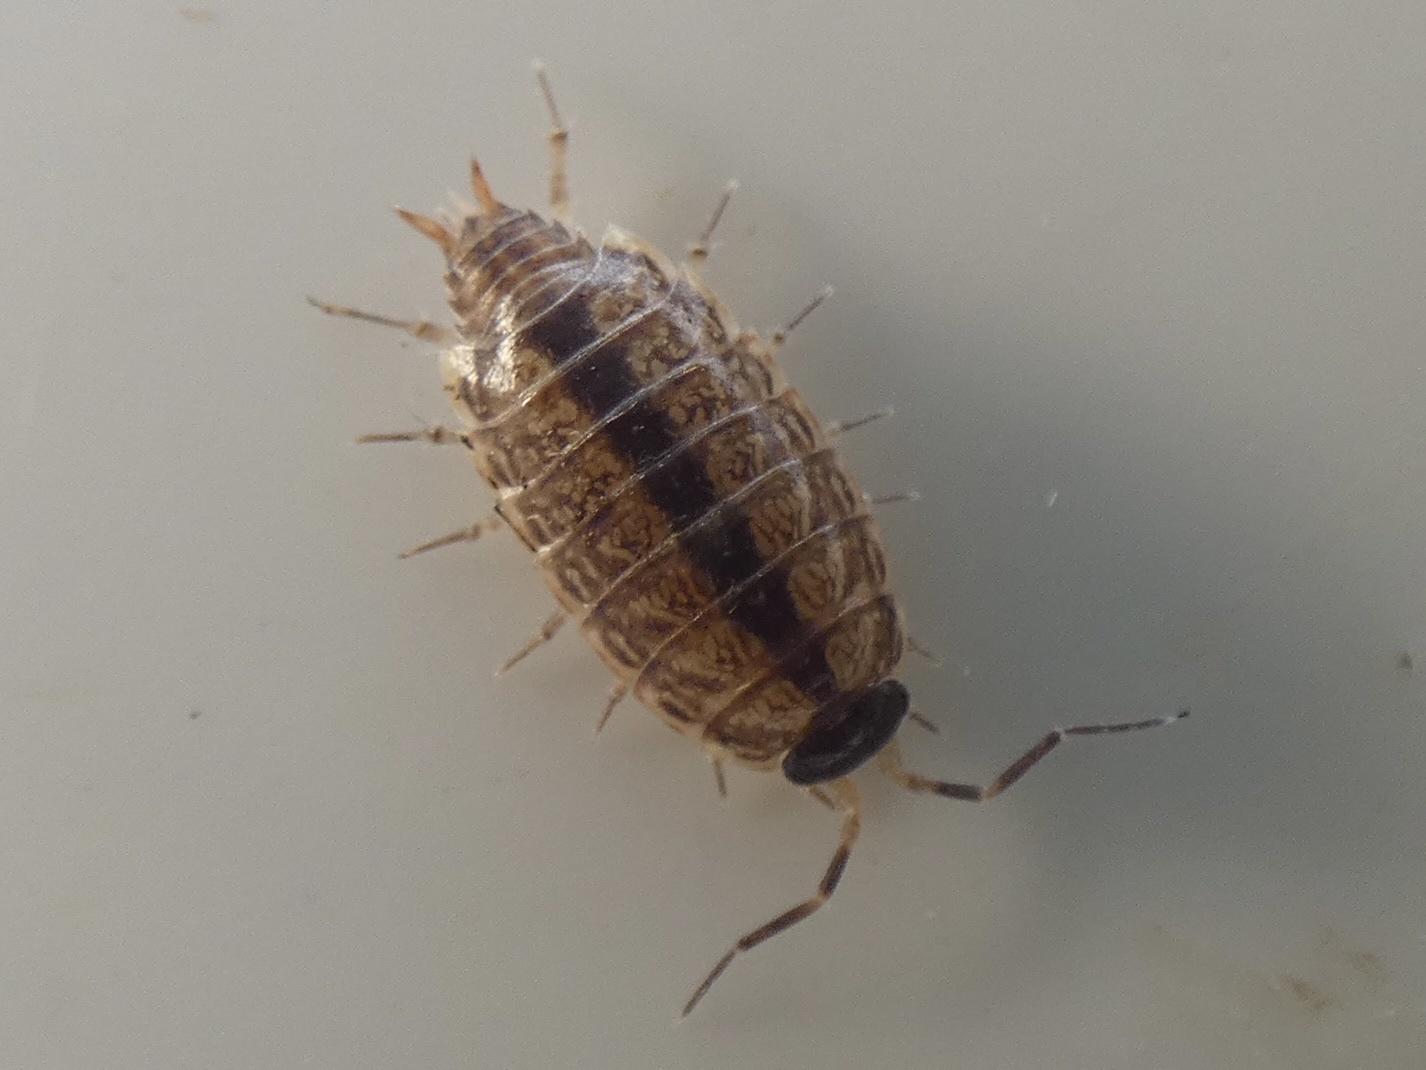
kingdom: Animalia
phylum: Arthropoda
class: Malacostraca
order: Isopoda
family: Philosciidae
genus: Philoscia
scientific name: Philoscia muscorum
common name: Common striped woodlouse
